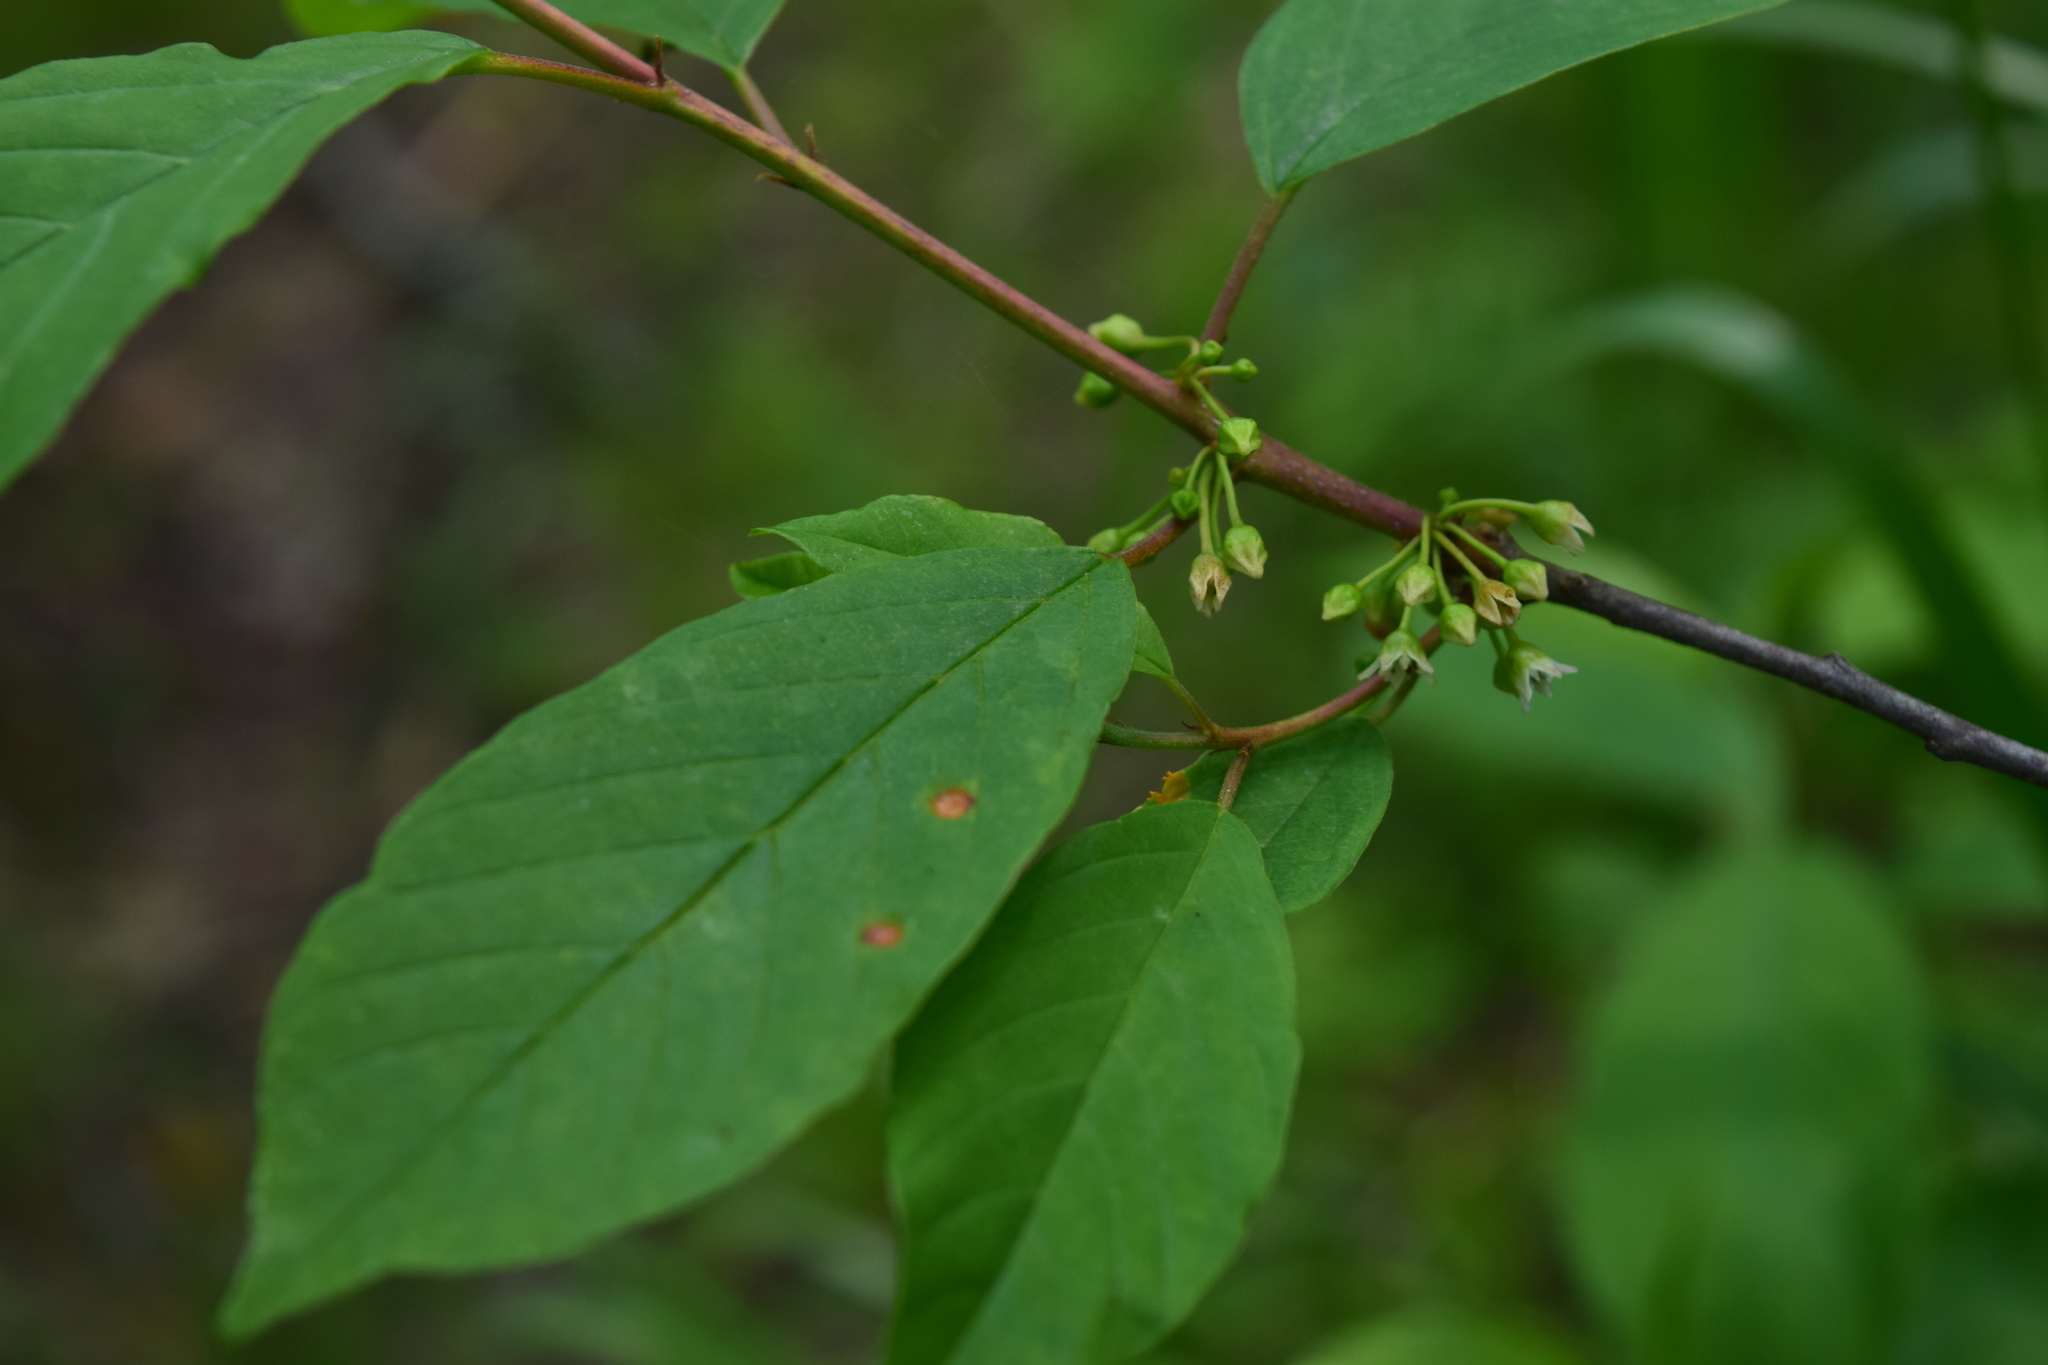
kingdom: Plantae
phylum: Tracheophyta
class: Magnoliopsida
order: Rosales
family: Rhamnaceae
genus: Frangula
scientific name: Frangula alnus
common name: Alder buckthorn
